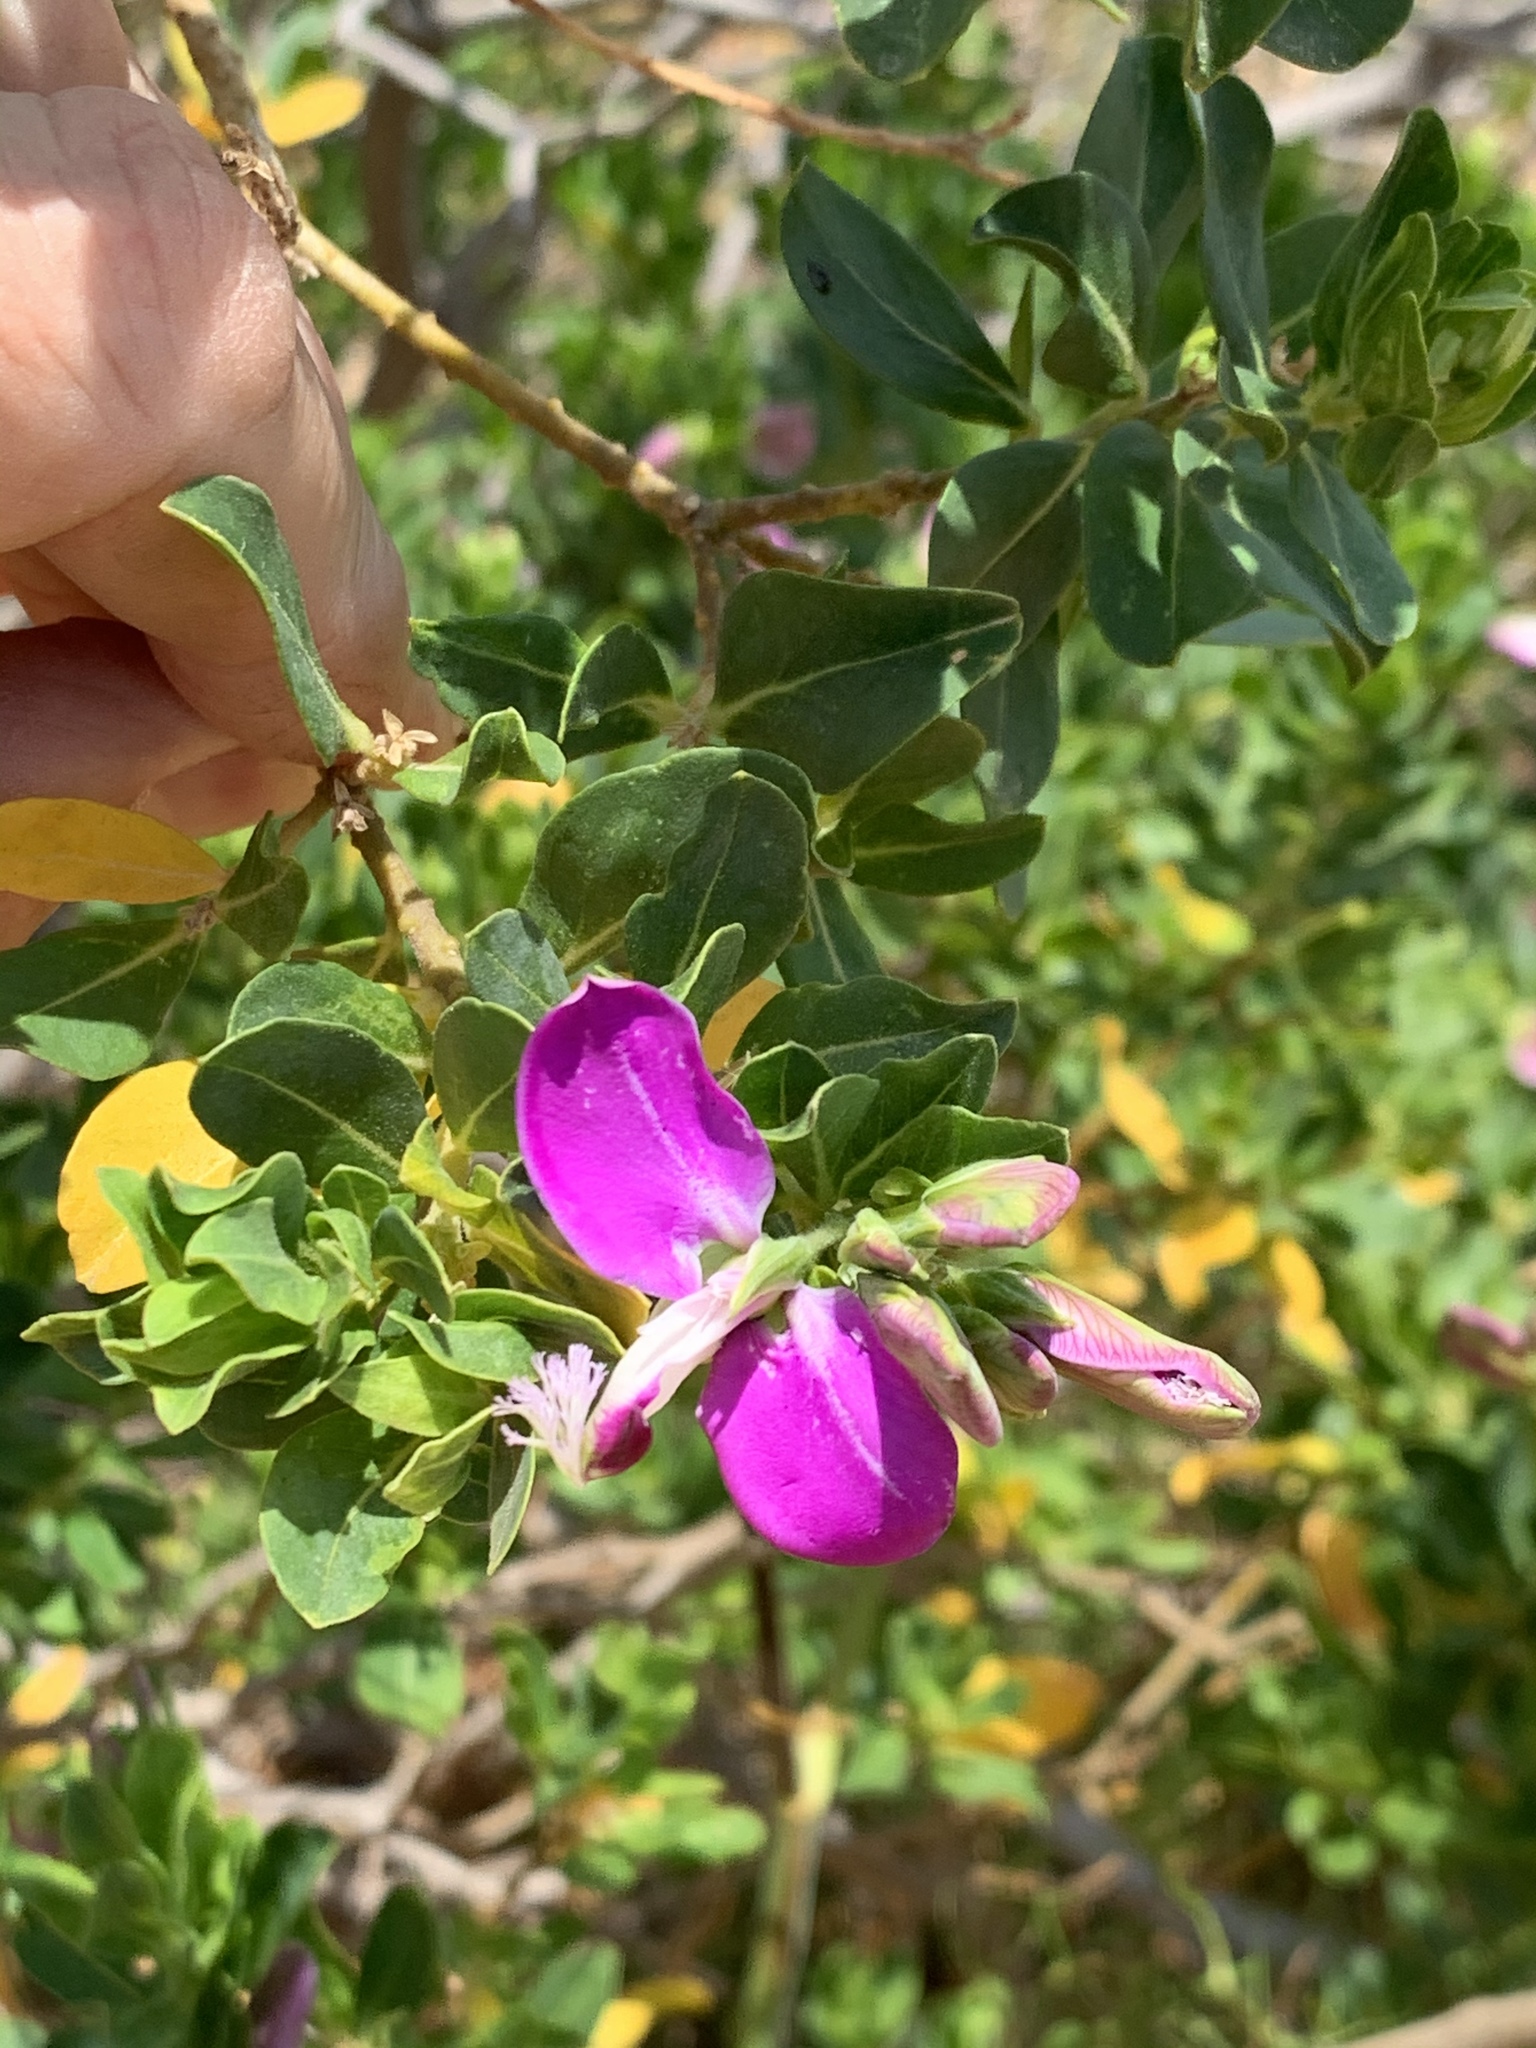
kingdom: Plantae
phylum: Tracheophyta
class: Magnoliopsida
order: Fabales
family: Polygalaceae
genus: Polygala
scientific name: Polygala myrtifolia
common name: Myrtle-leaf milkwort
